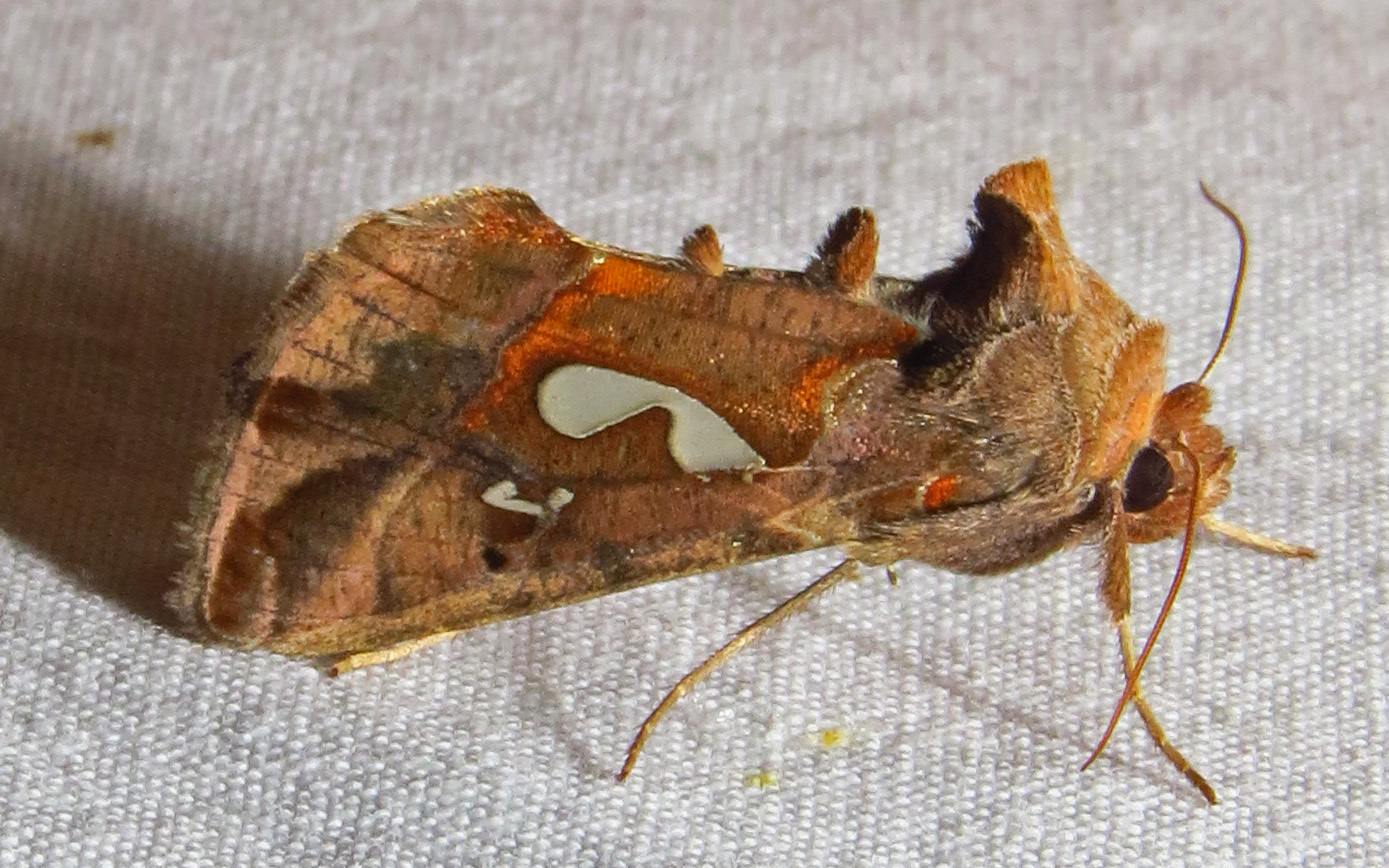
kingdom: Animalia
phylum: Arthropoda
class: Insecta
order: Lepidoptera
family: Noctuidae
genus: Megalographa
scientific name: Megalographa biloba
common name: Cutworm
